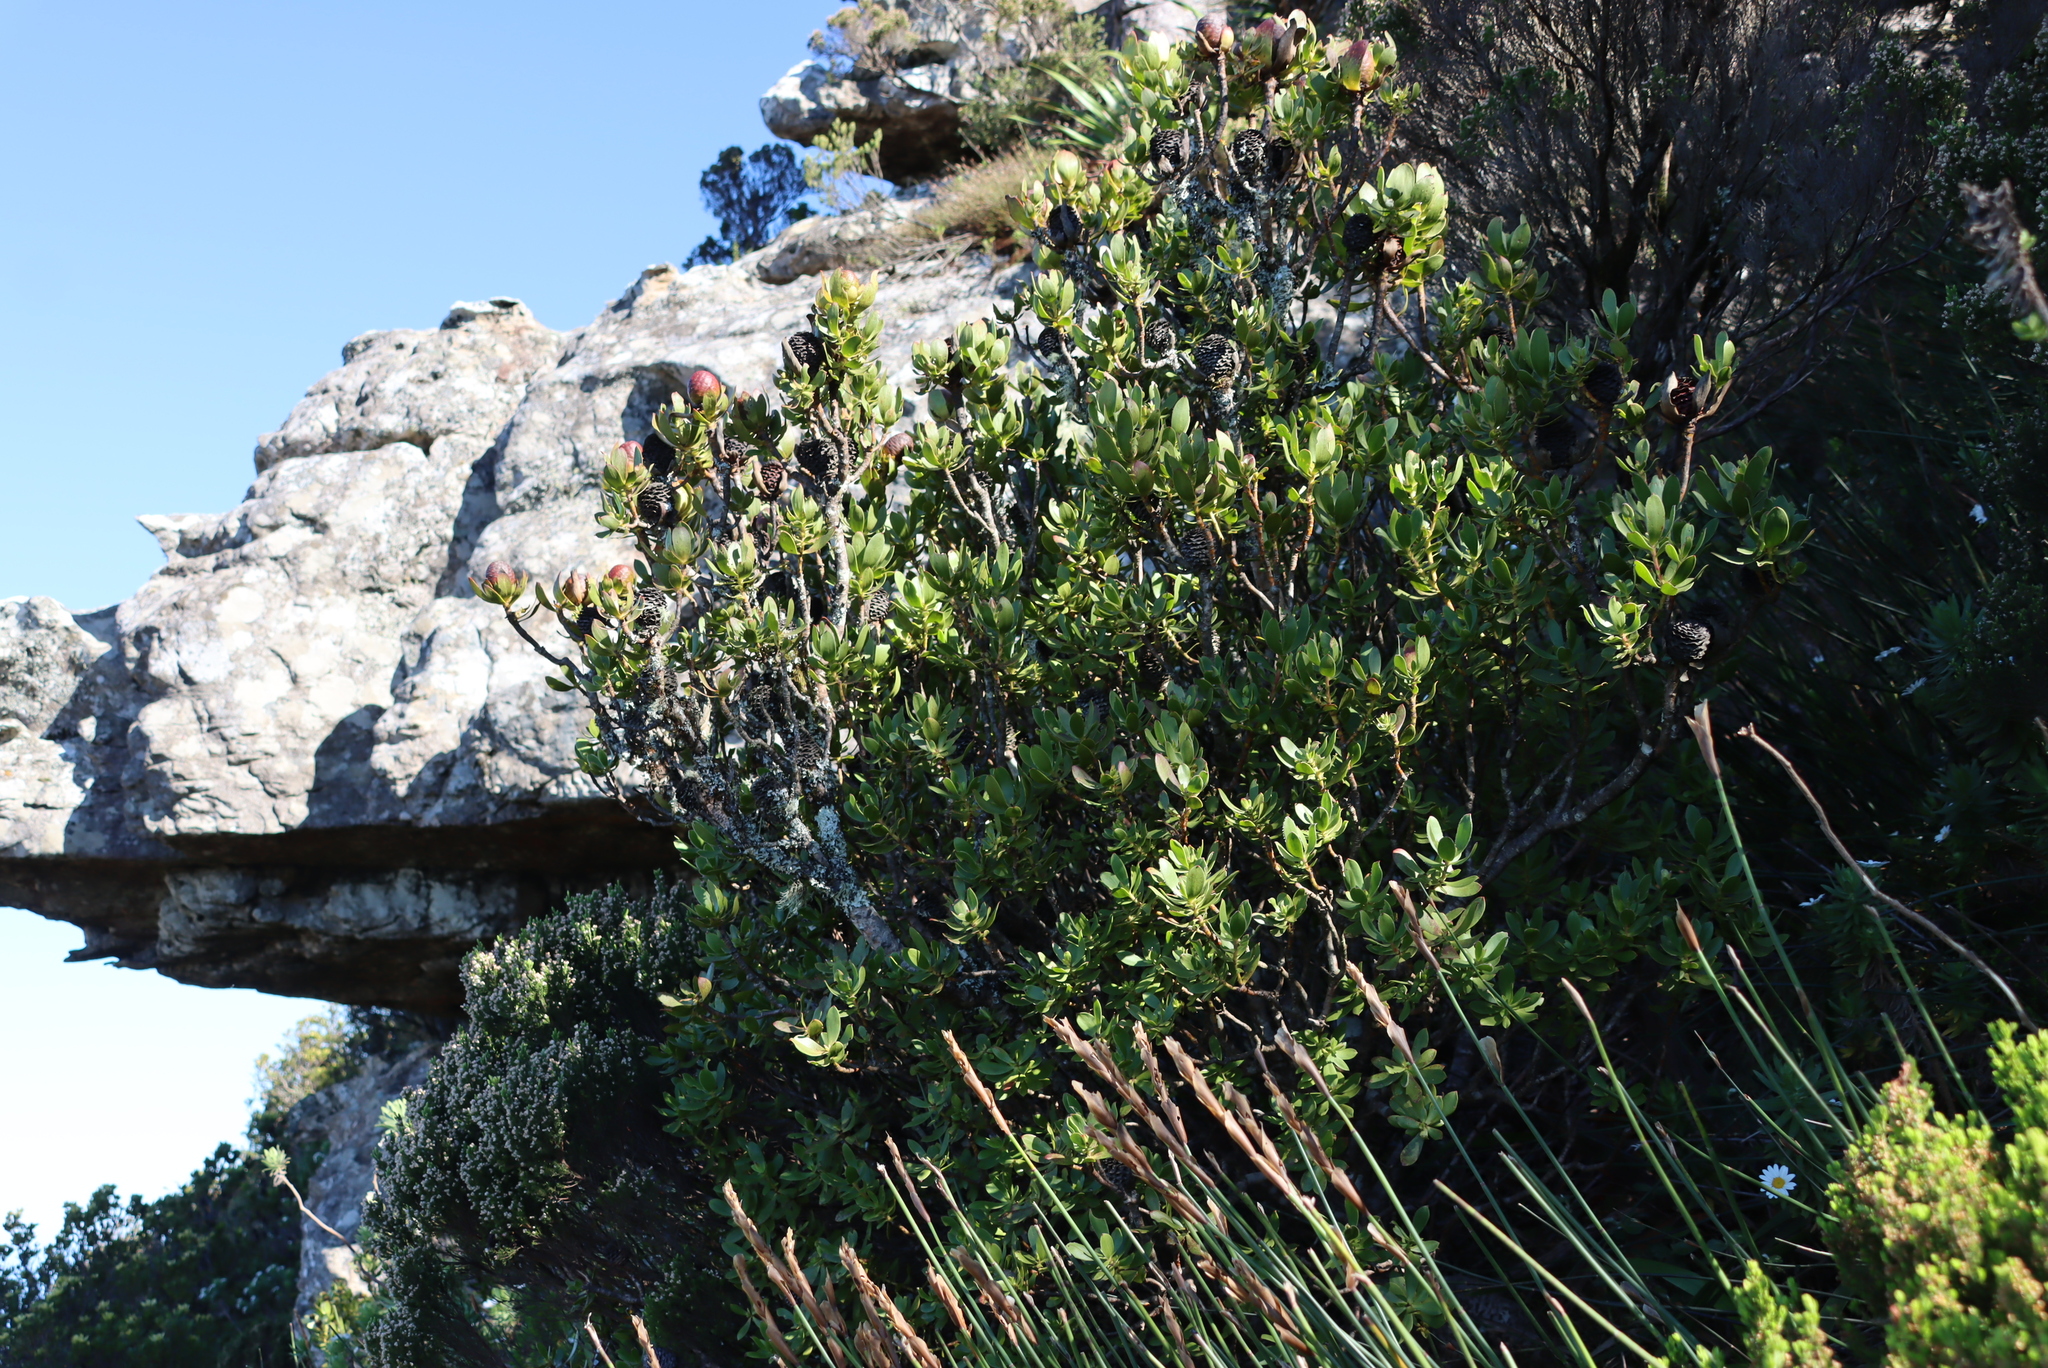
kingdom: Plantae
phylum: Tracheophyta
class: Magnoliopsida
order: Proteales
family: Proteaceae
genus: Leucadendron
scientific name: Leucadendron strobilinum
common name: Mountain rose
